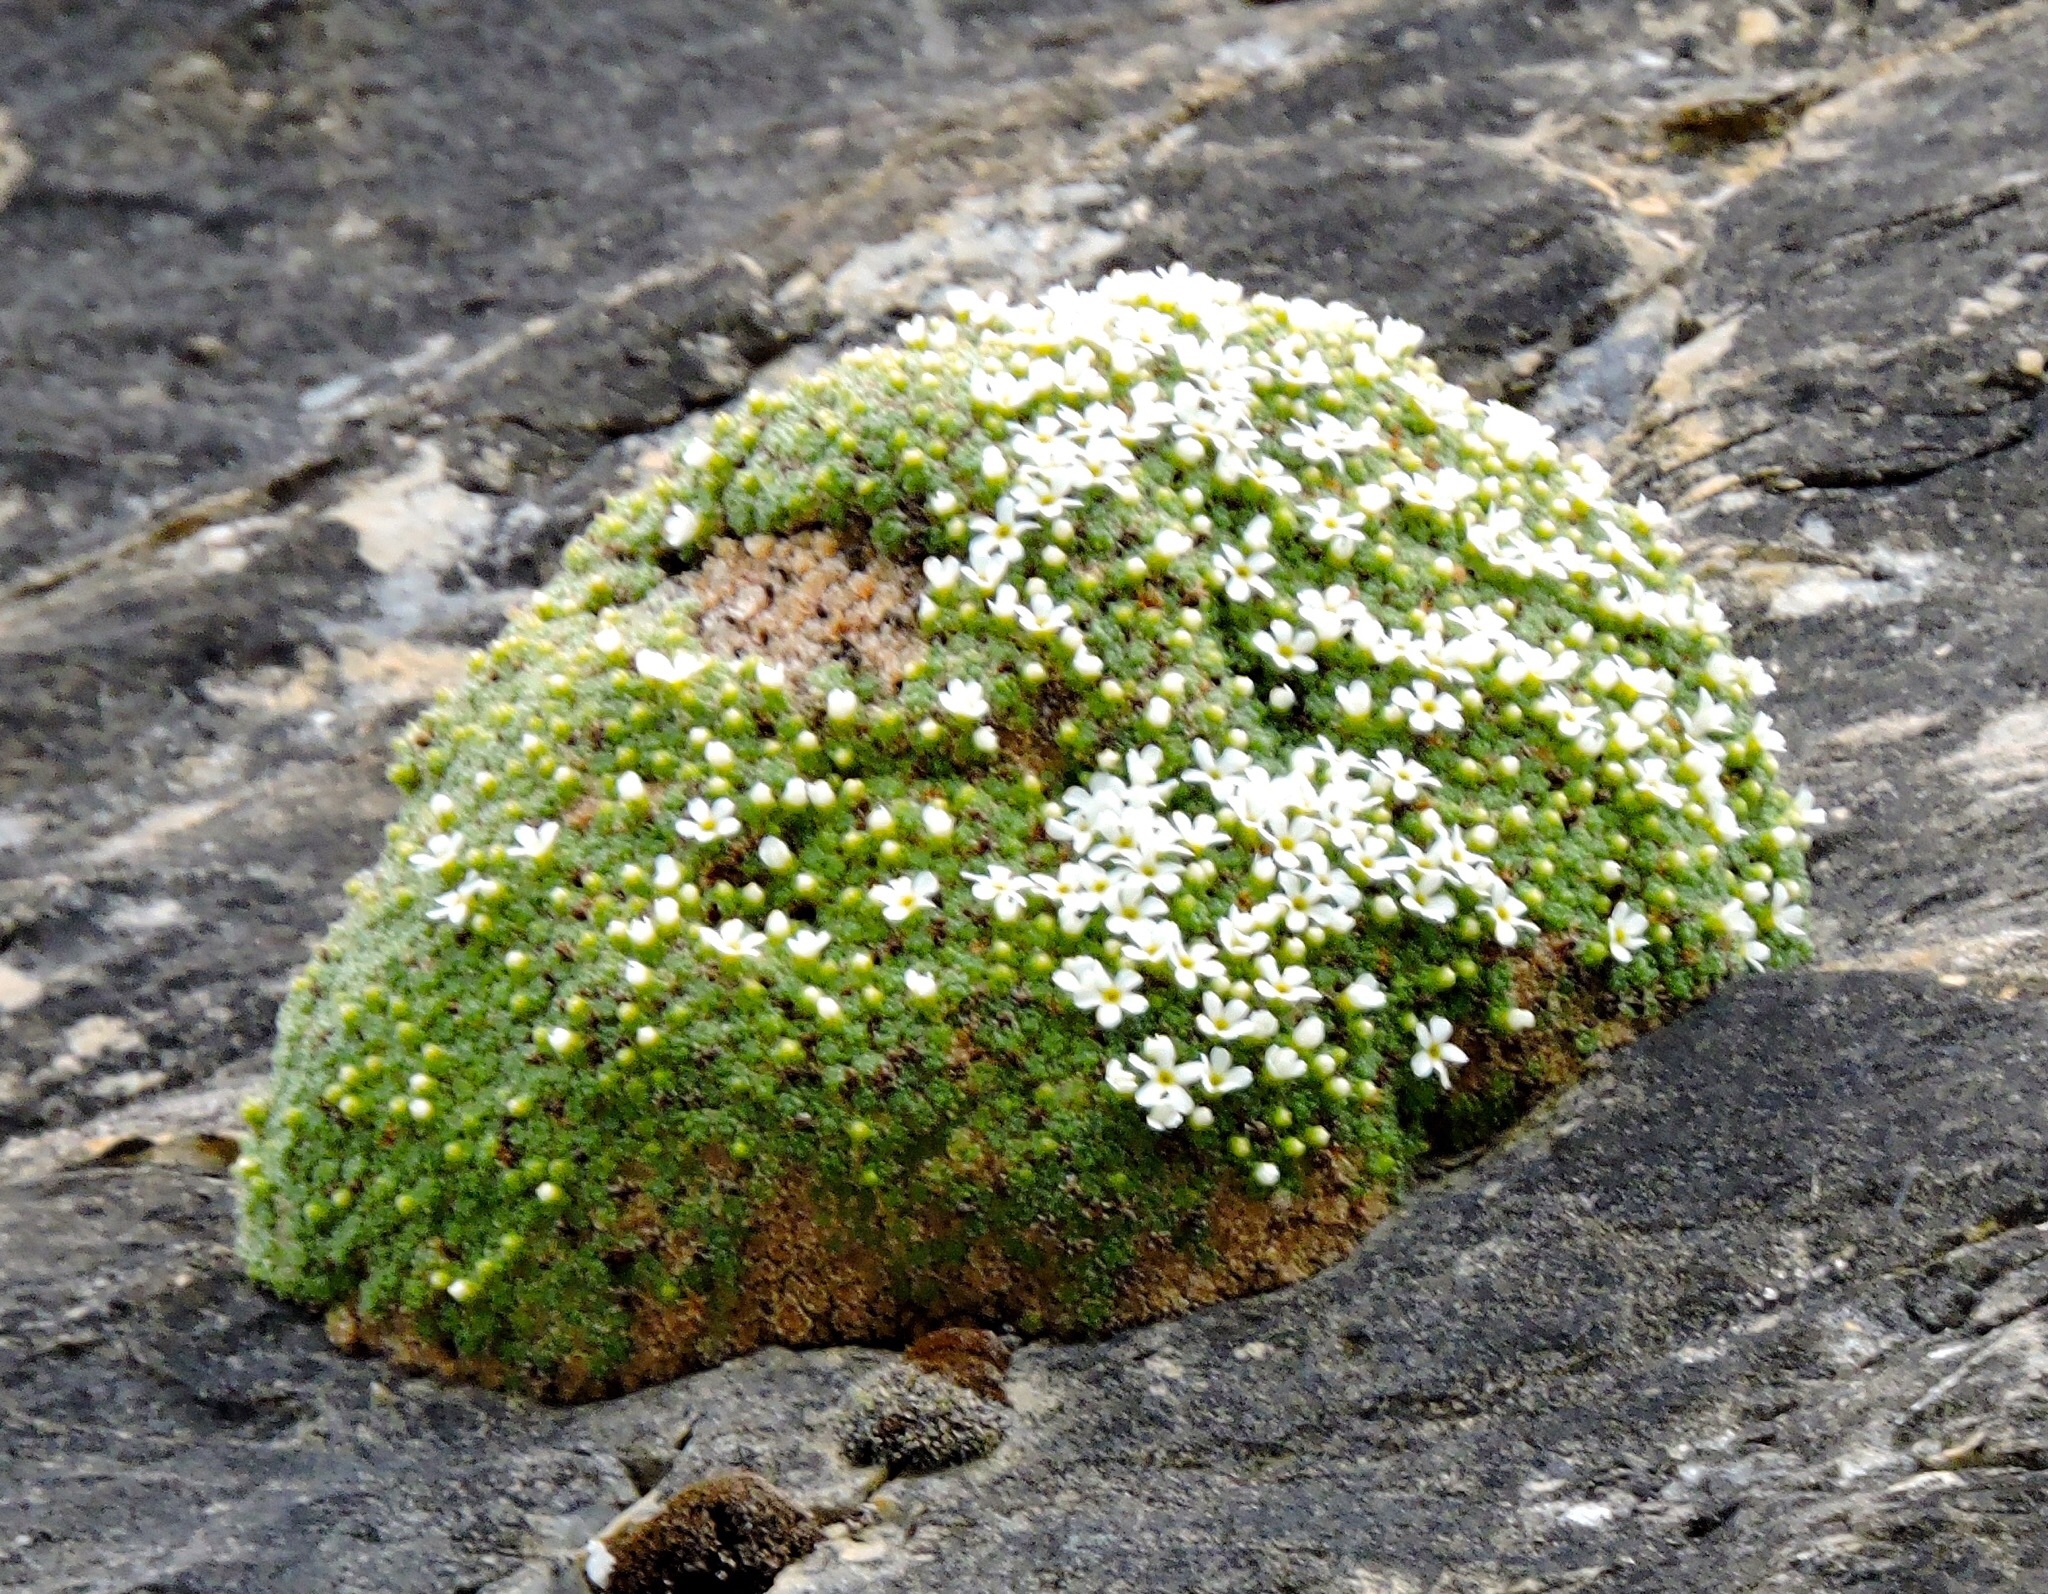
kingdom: Plantae
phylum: Tracheophyta
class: Magnoliopsida
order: Ericales
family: Primulaceae
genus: Androsace
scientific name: Androsace helvetica
